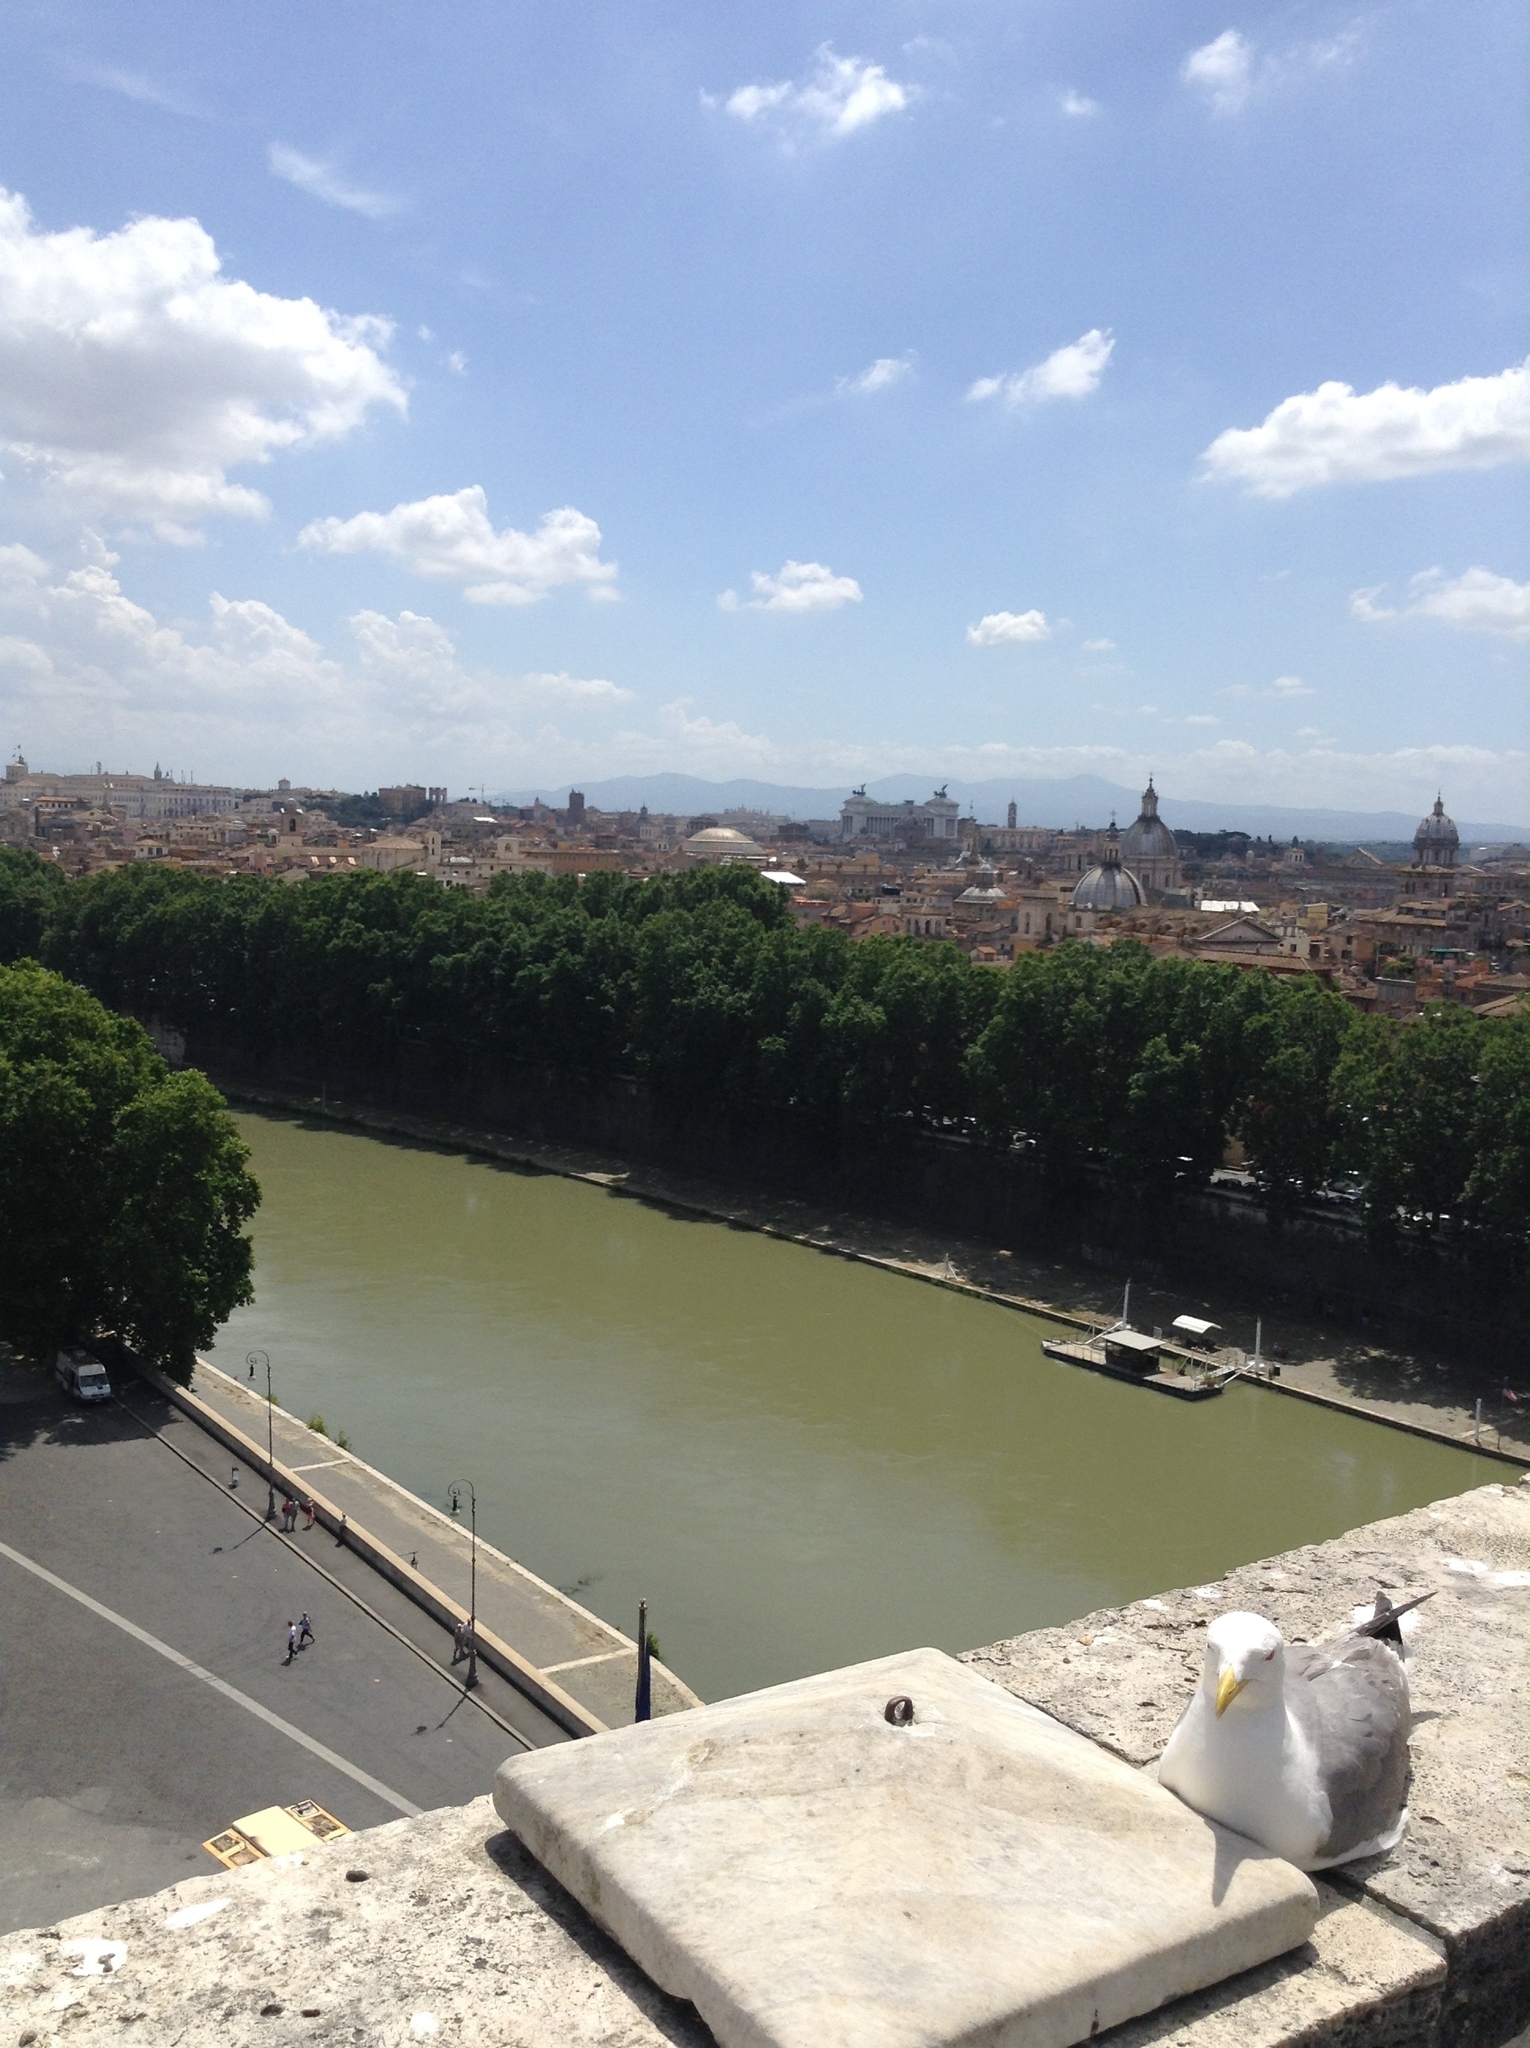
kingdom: Animalia
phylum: Chordata
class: Aves
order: Charadriiformes
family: Laridae
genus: Larus
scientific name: Larus michahellis
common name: Yellow-legged gull
